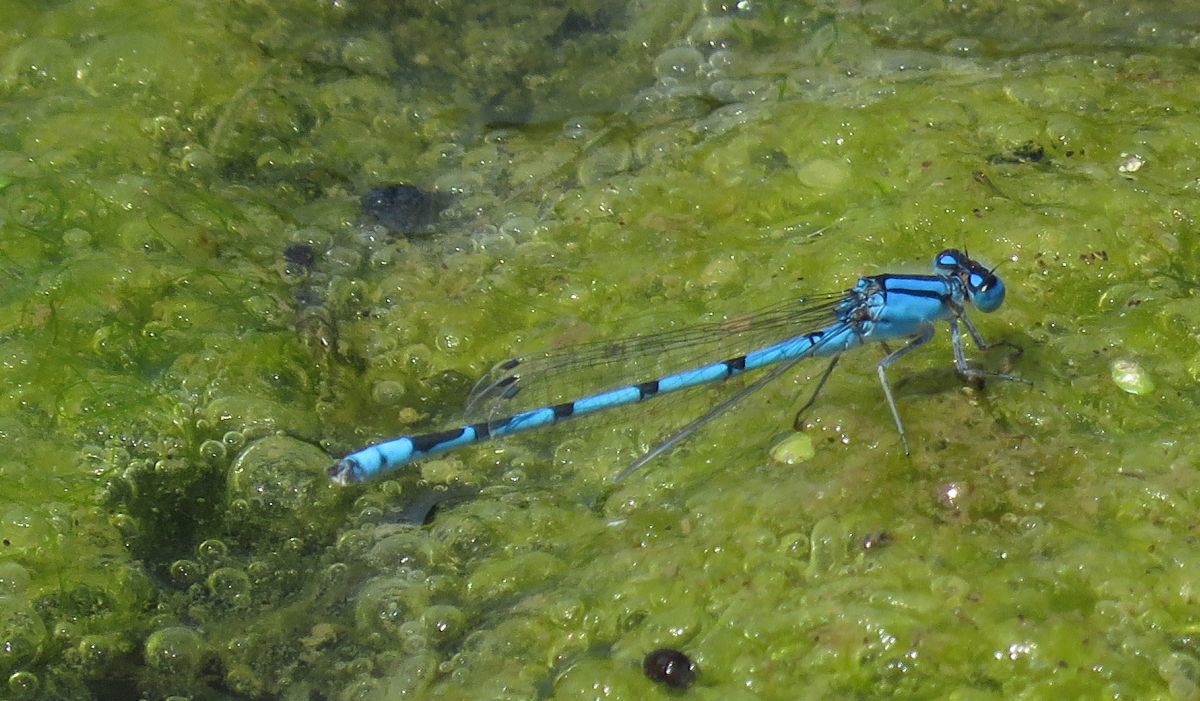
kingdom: Animalia
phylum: Arthropoda
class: Insecta
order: Odonata
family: Coenagrionidae
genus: Enallagma
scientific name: Enallagma civile
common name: Damselfly
